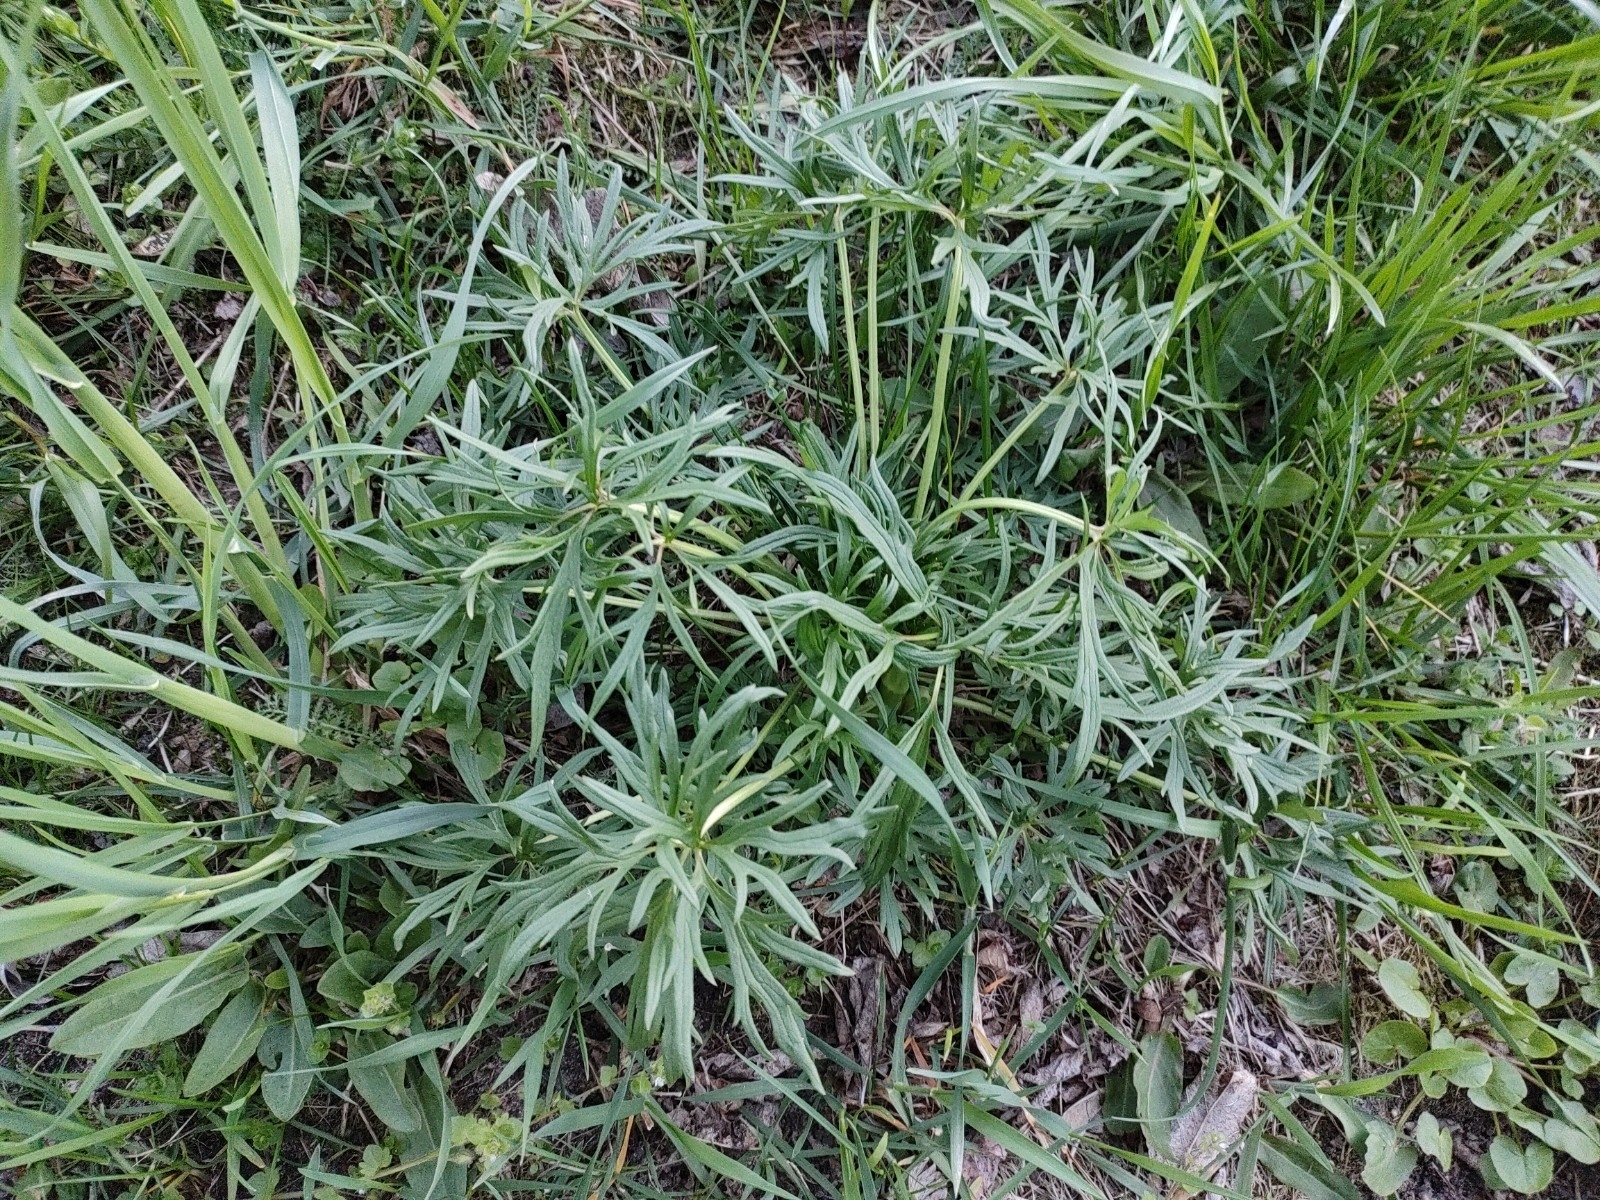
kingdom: Plantae
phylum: Tracheophyta
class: Magnoliopsida
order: Ranunculales
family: Ranunculaceae
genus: Ranunculus
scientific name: Ranunculus acris
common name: Meadow buttercup
